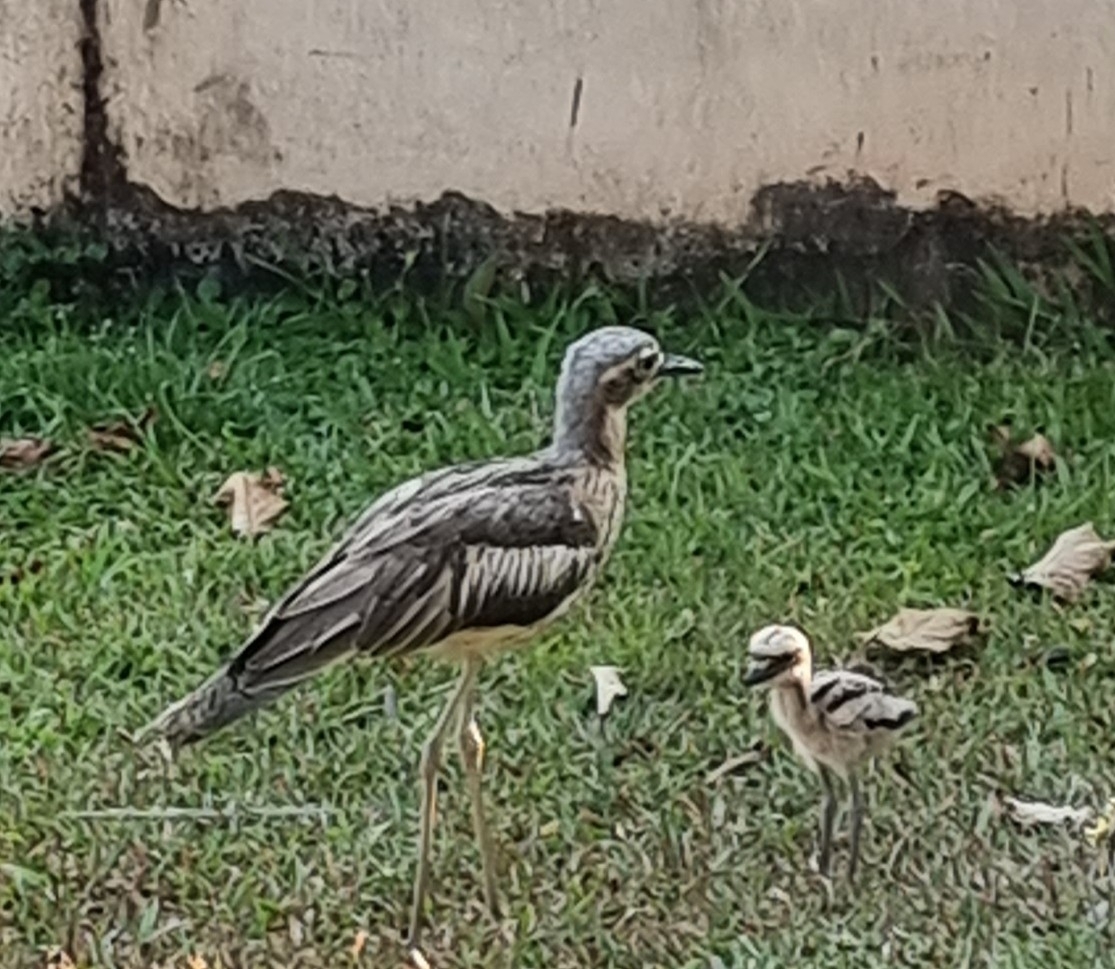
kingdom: Animalia
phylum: Chordata
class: Aves
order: Charadriiformes
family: Burhinidae
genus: Burhinus
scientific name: Burhinus grallarius
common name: Bush stone-curlew
